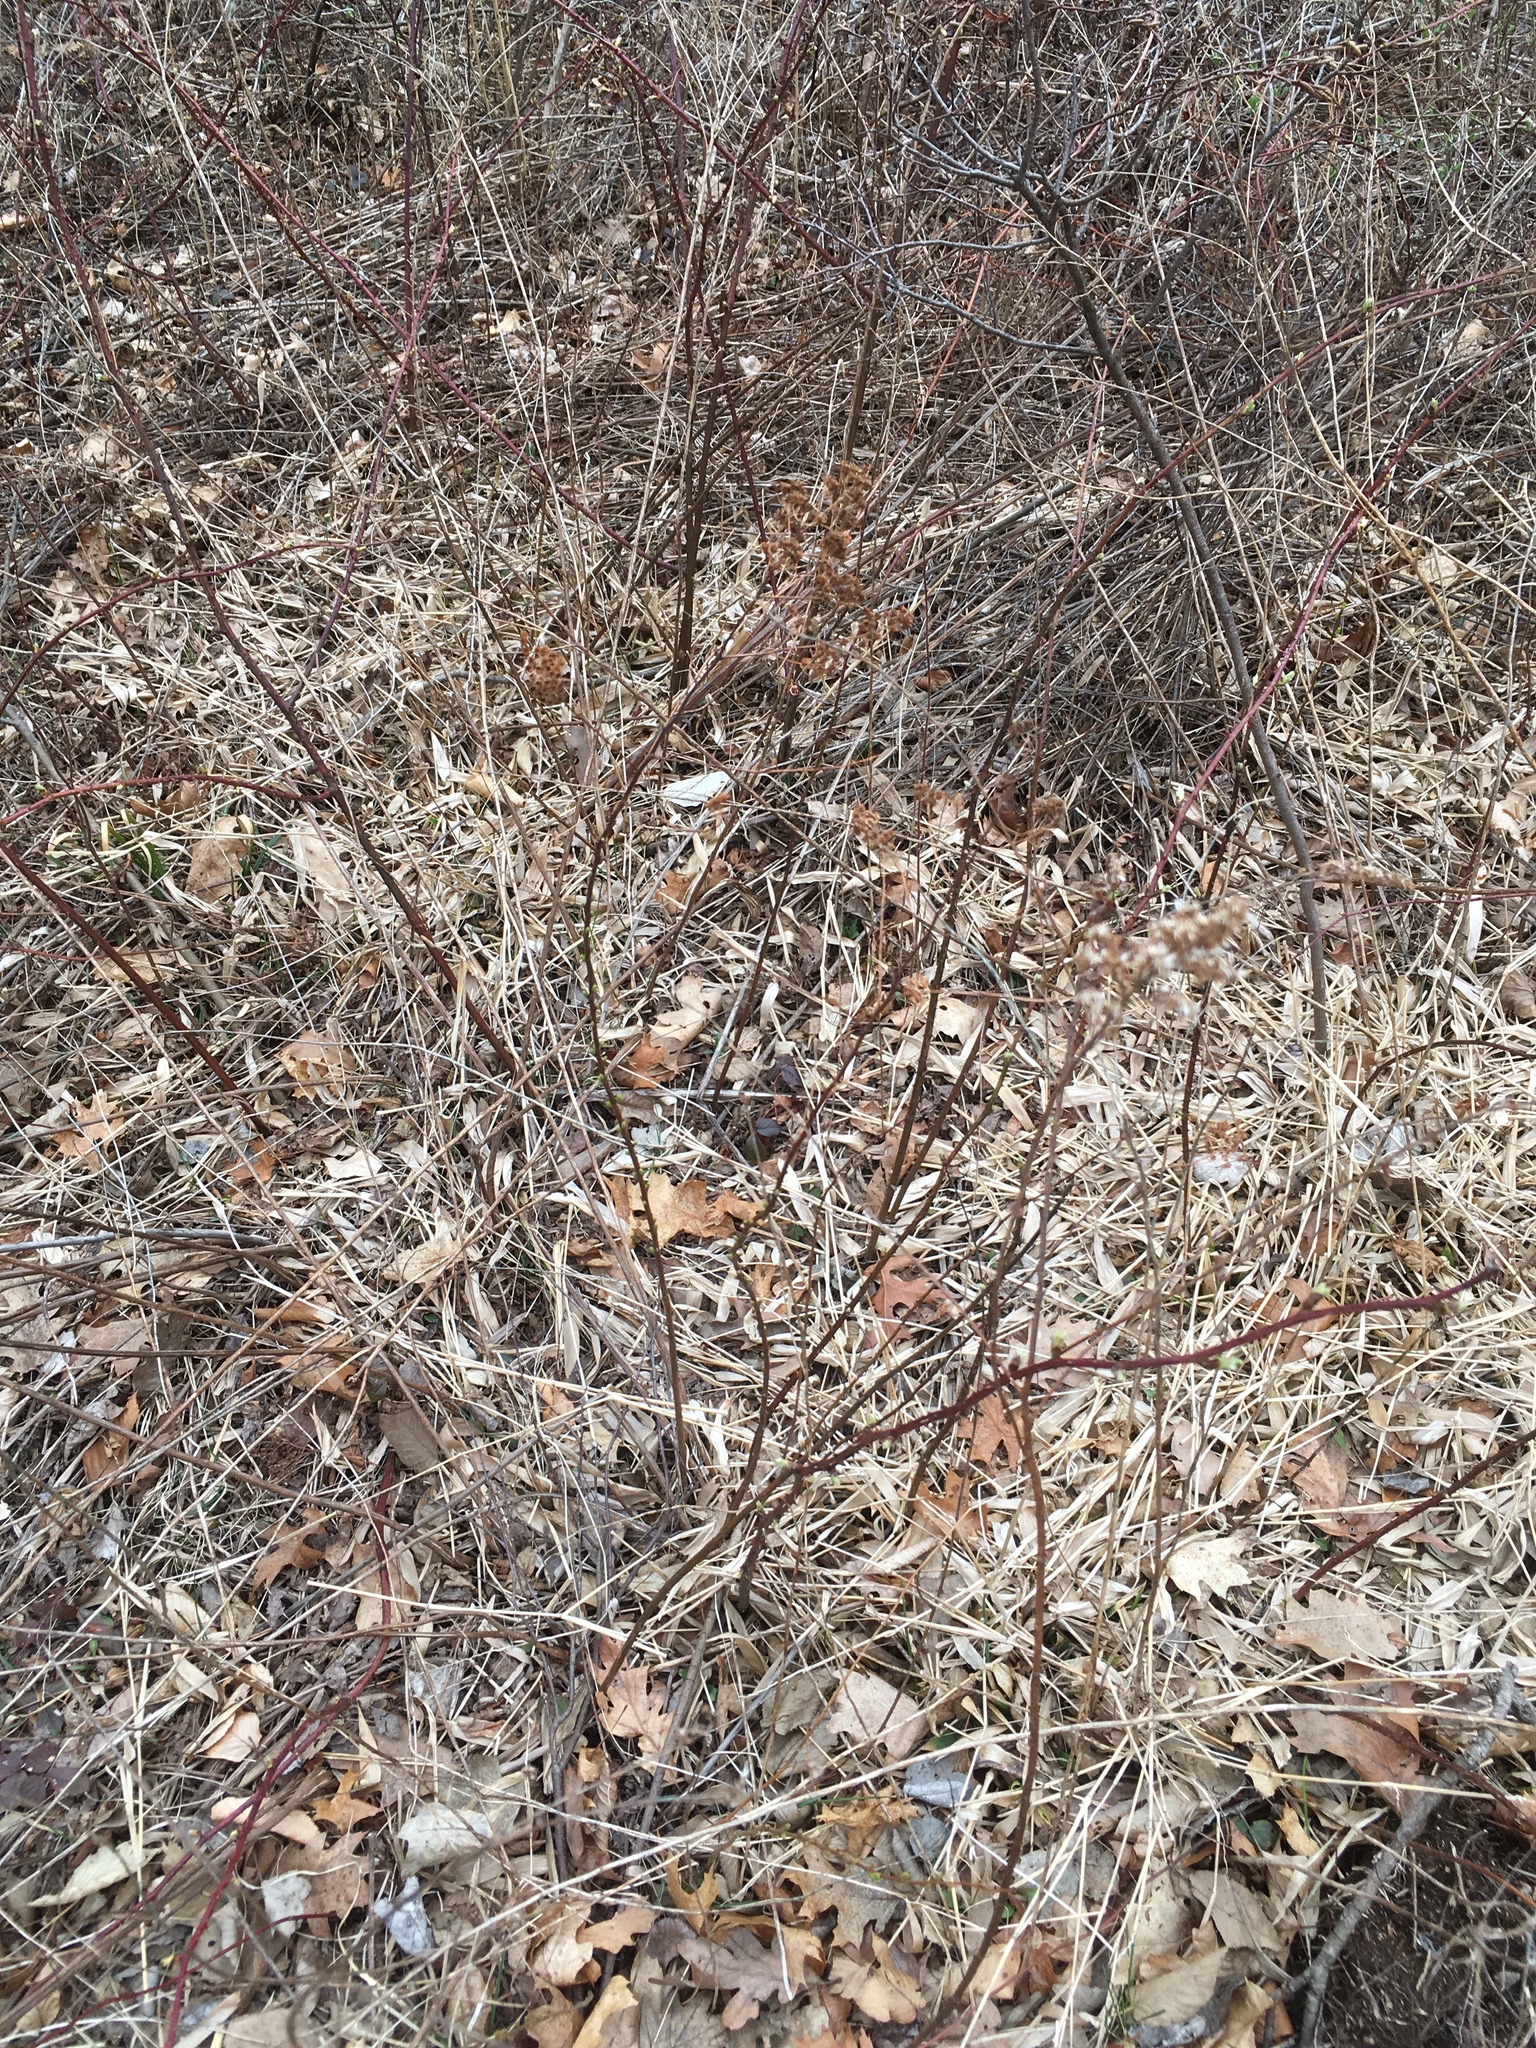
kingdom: Plantae
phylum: Tracheophyta
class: Magnoliopsida
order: Rosales
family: Rosaceae
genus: Spiraea
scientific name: Spiraea alba
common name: Pale bridewort
